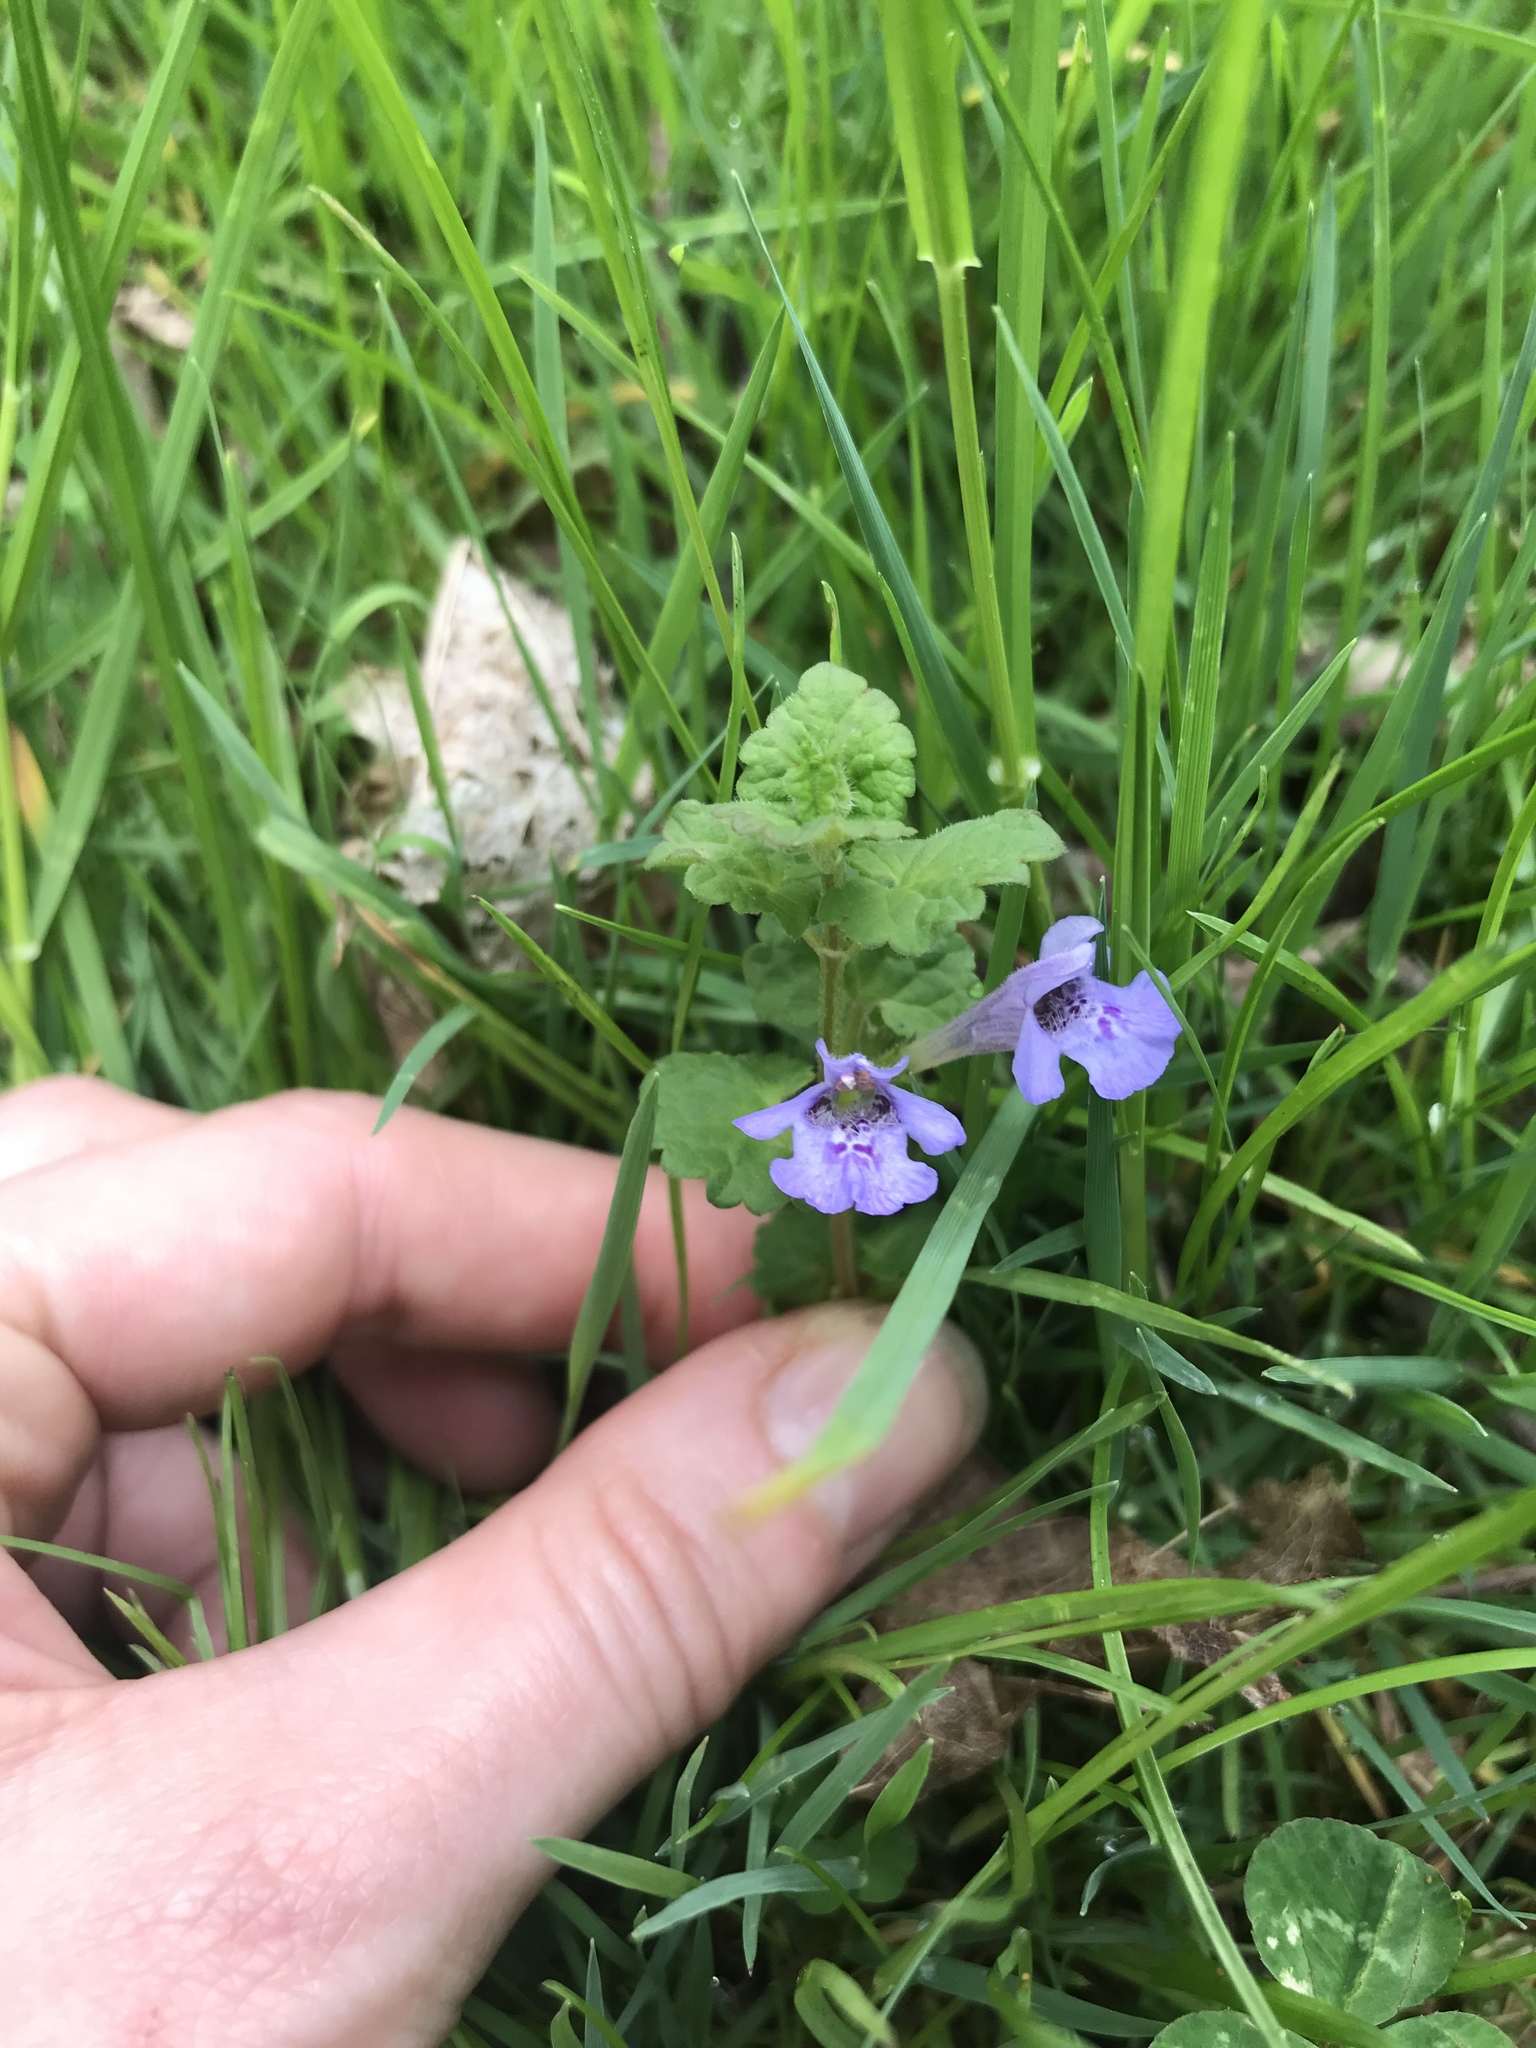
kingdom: Plantae
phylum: Tracheophyta
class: Magnoliopsida
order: Lamiales
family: Lamiaceae
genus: Glechoma
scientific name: Glechoma hederacea
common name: Ground ivy
